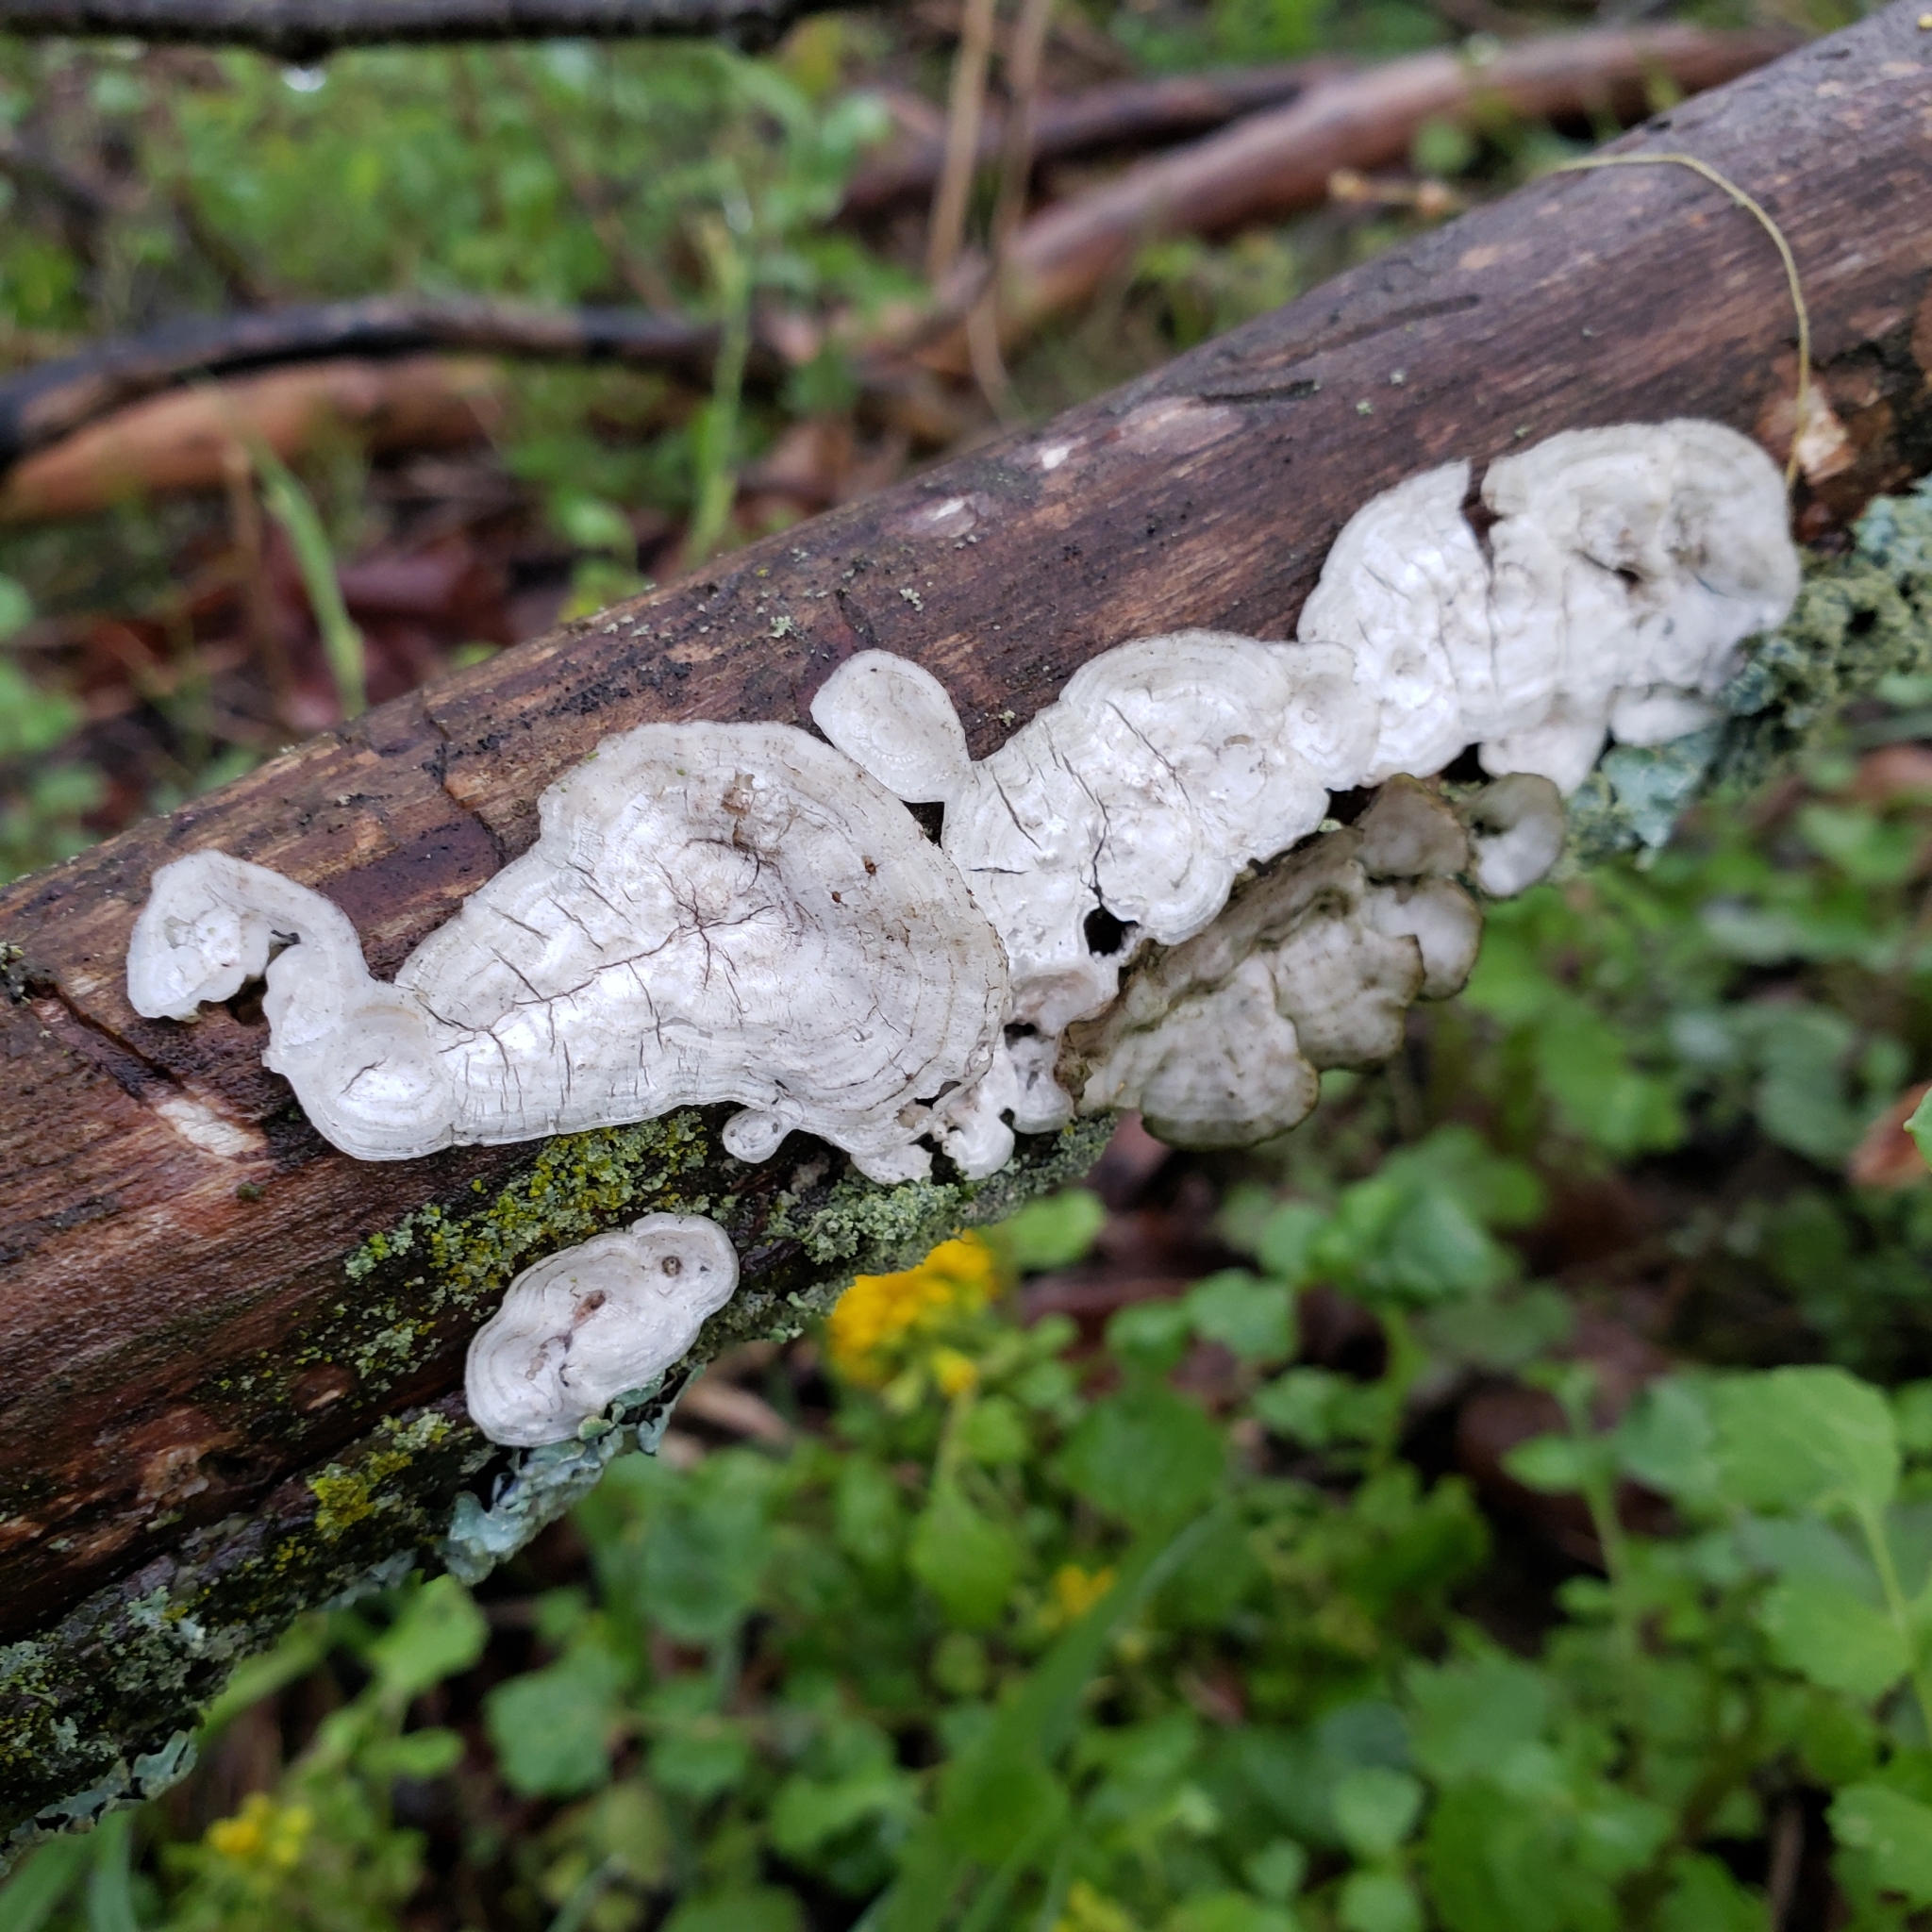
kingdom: Fungi
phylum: Basidiomycota
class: Agaricomycetes
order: Polyporales
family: Polyporaceae
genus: Poronidulus
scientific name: Poronidulus conchifer
